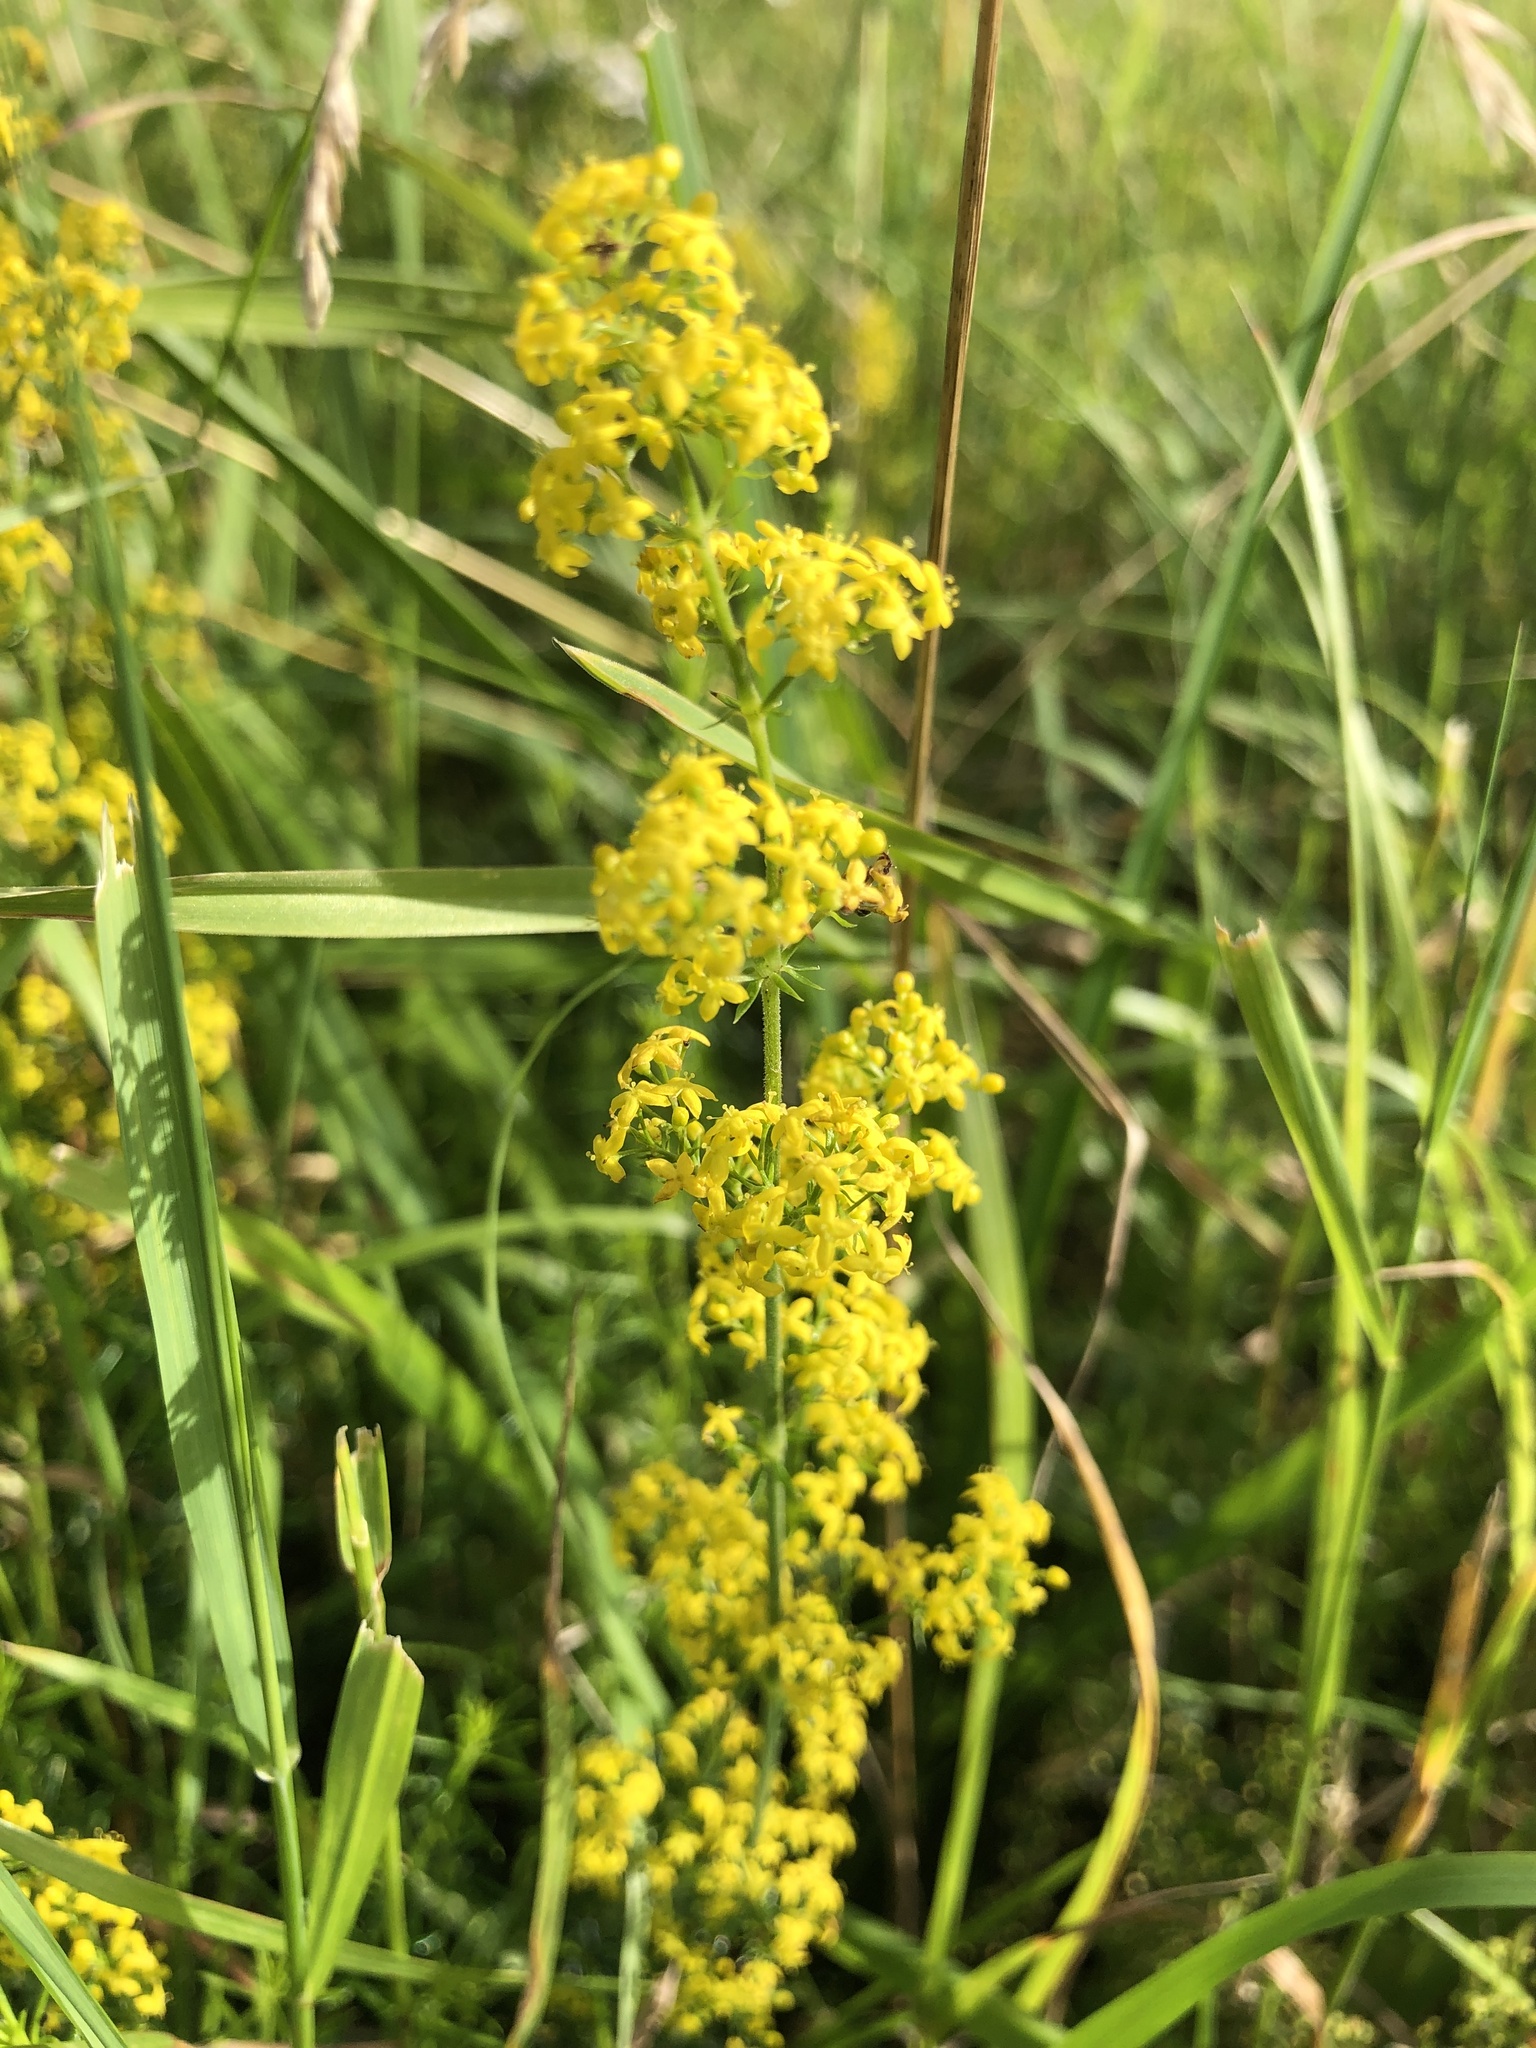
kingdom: Plantae
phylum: Tracheophyta
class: Magnoliopsida
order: Gentianales
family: Rubiaceae
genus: Galium
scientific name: Galium verum
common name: Lady's bedstraw
